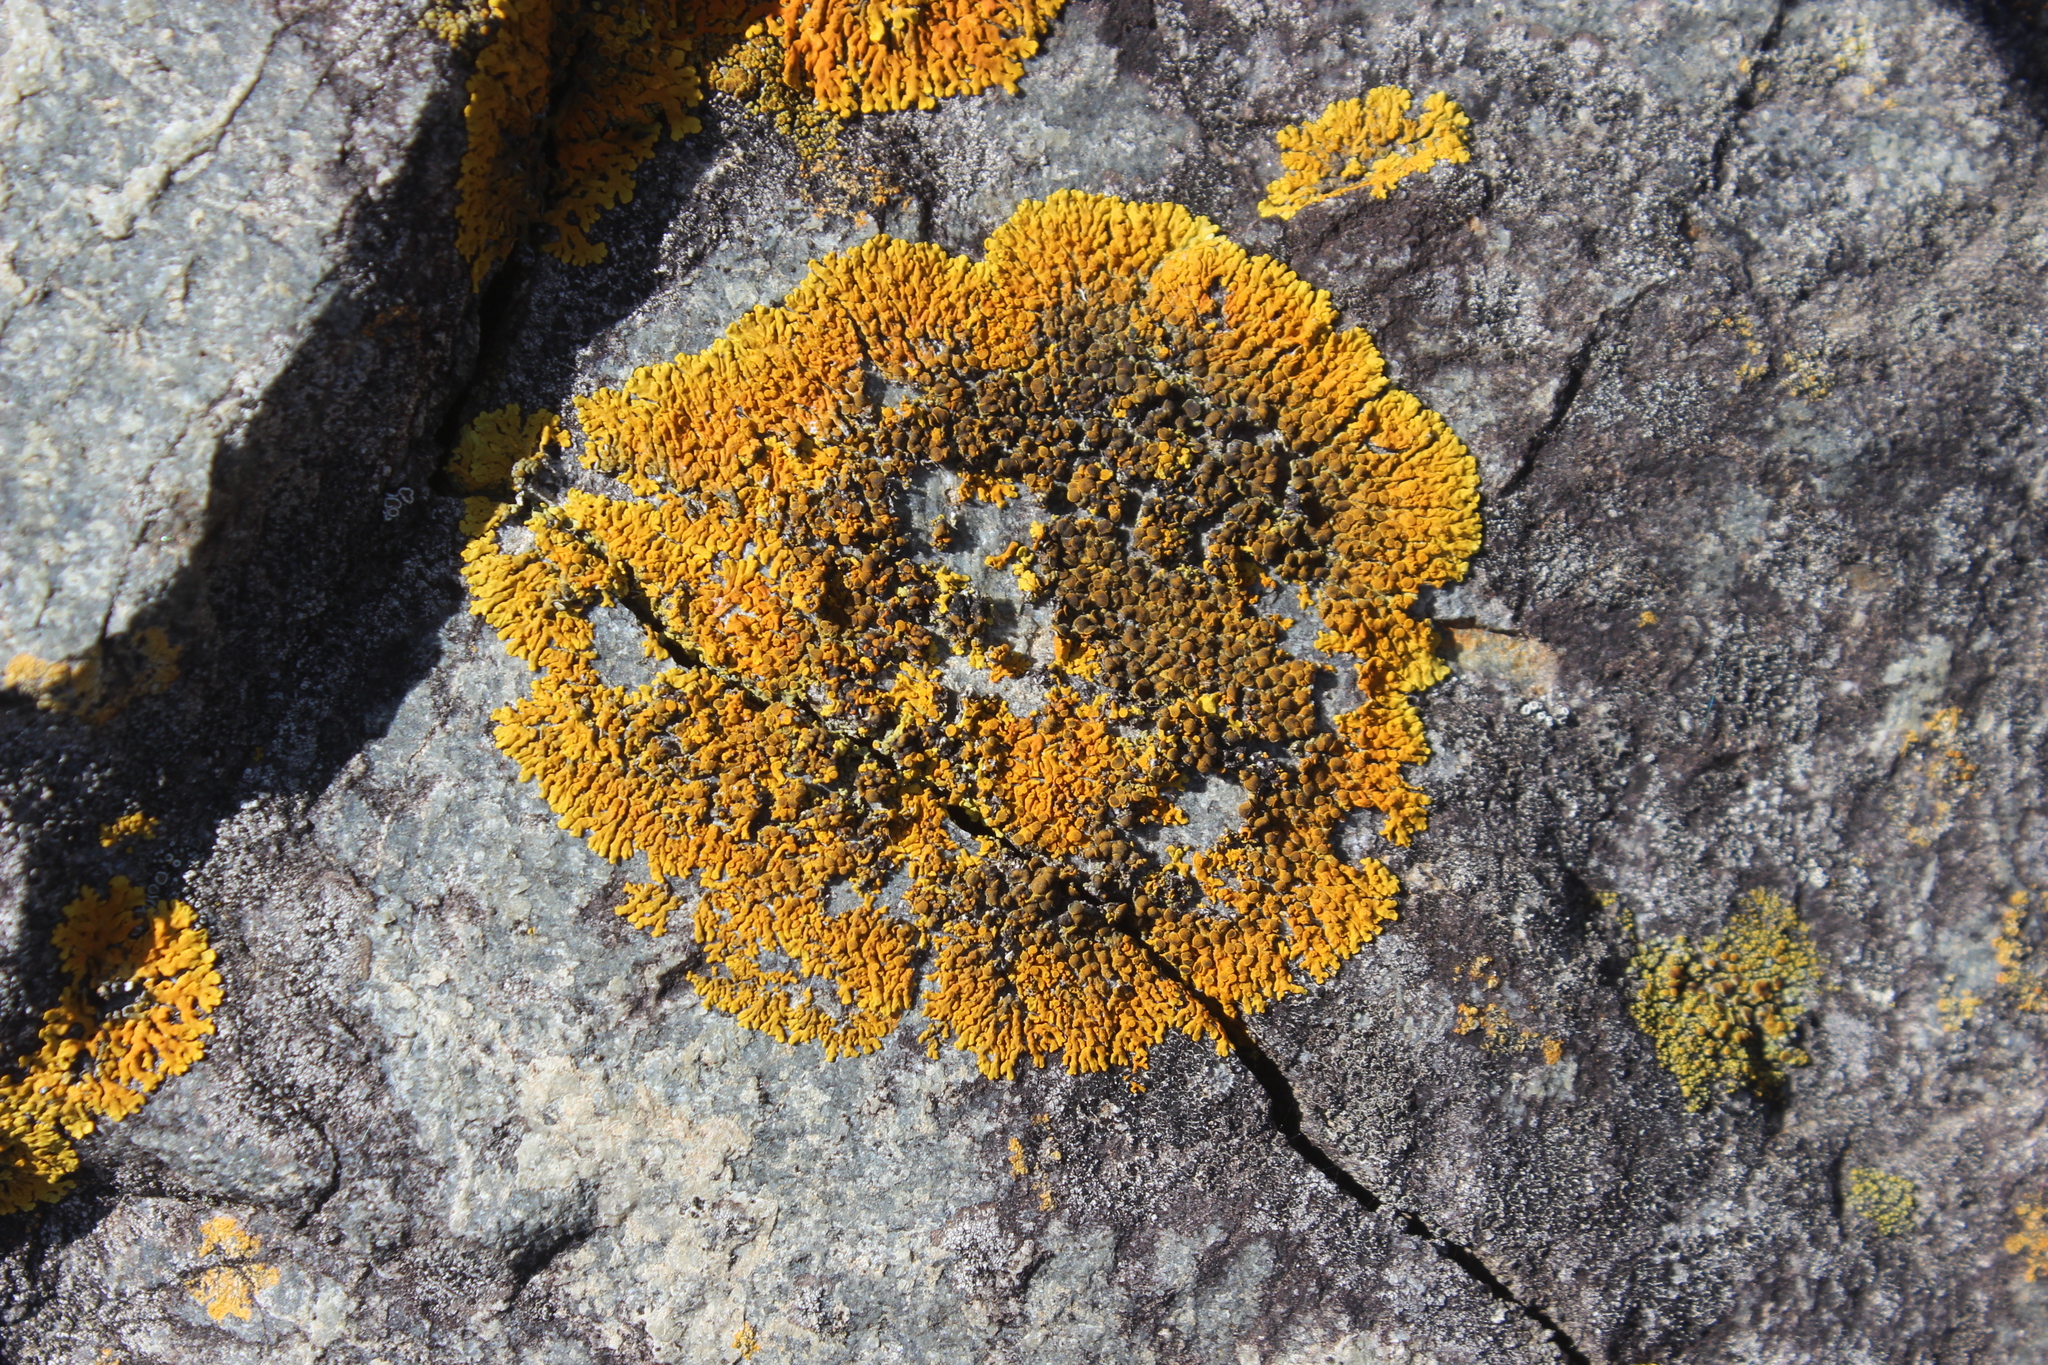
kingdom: Fungi
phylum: Ascomycota
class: Lecanoromycetes
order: Teloschistales
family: Teloschistaceae
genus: Dufourea
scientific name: Dufourea ligulata
